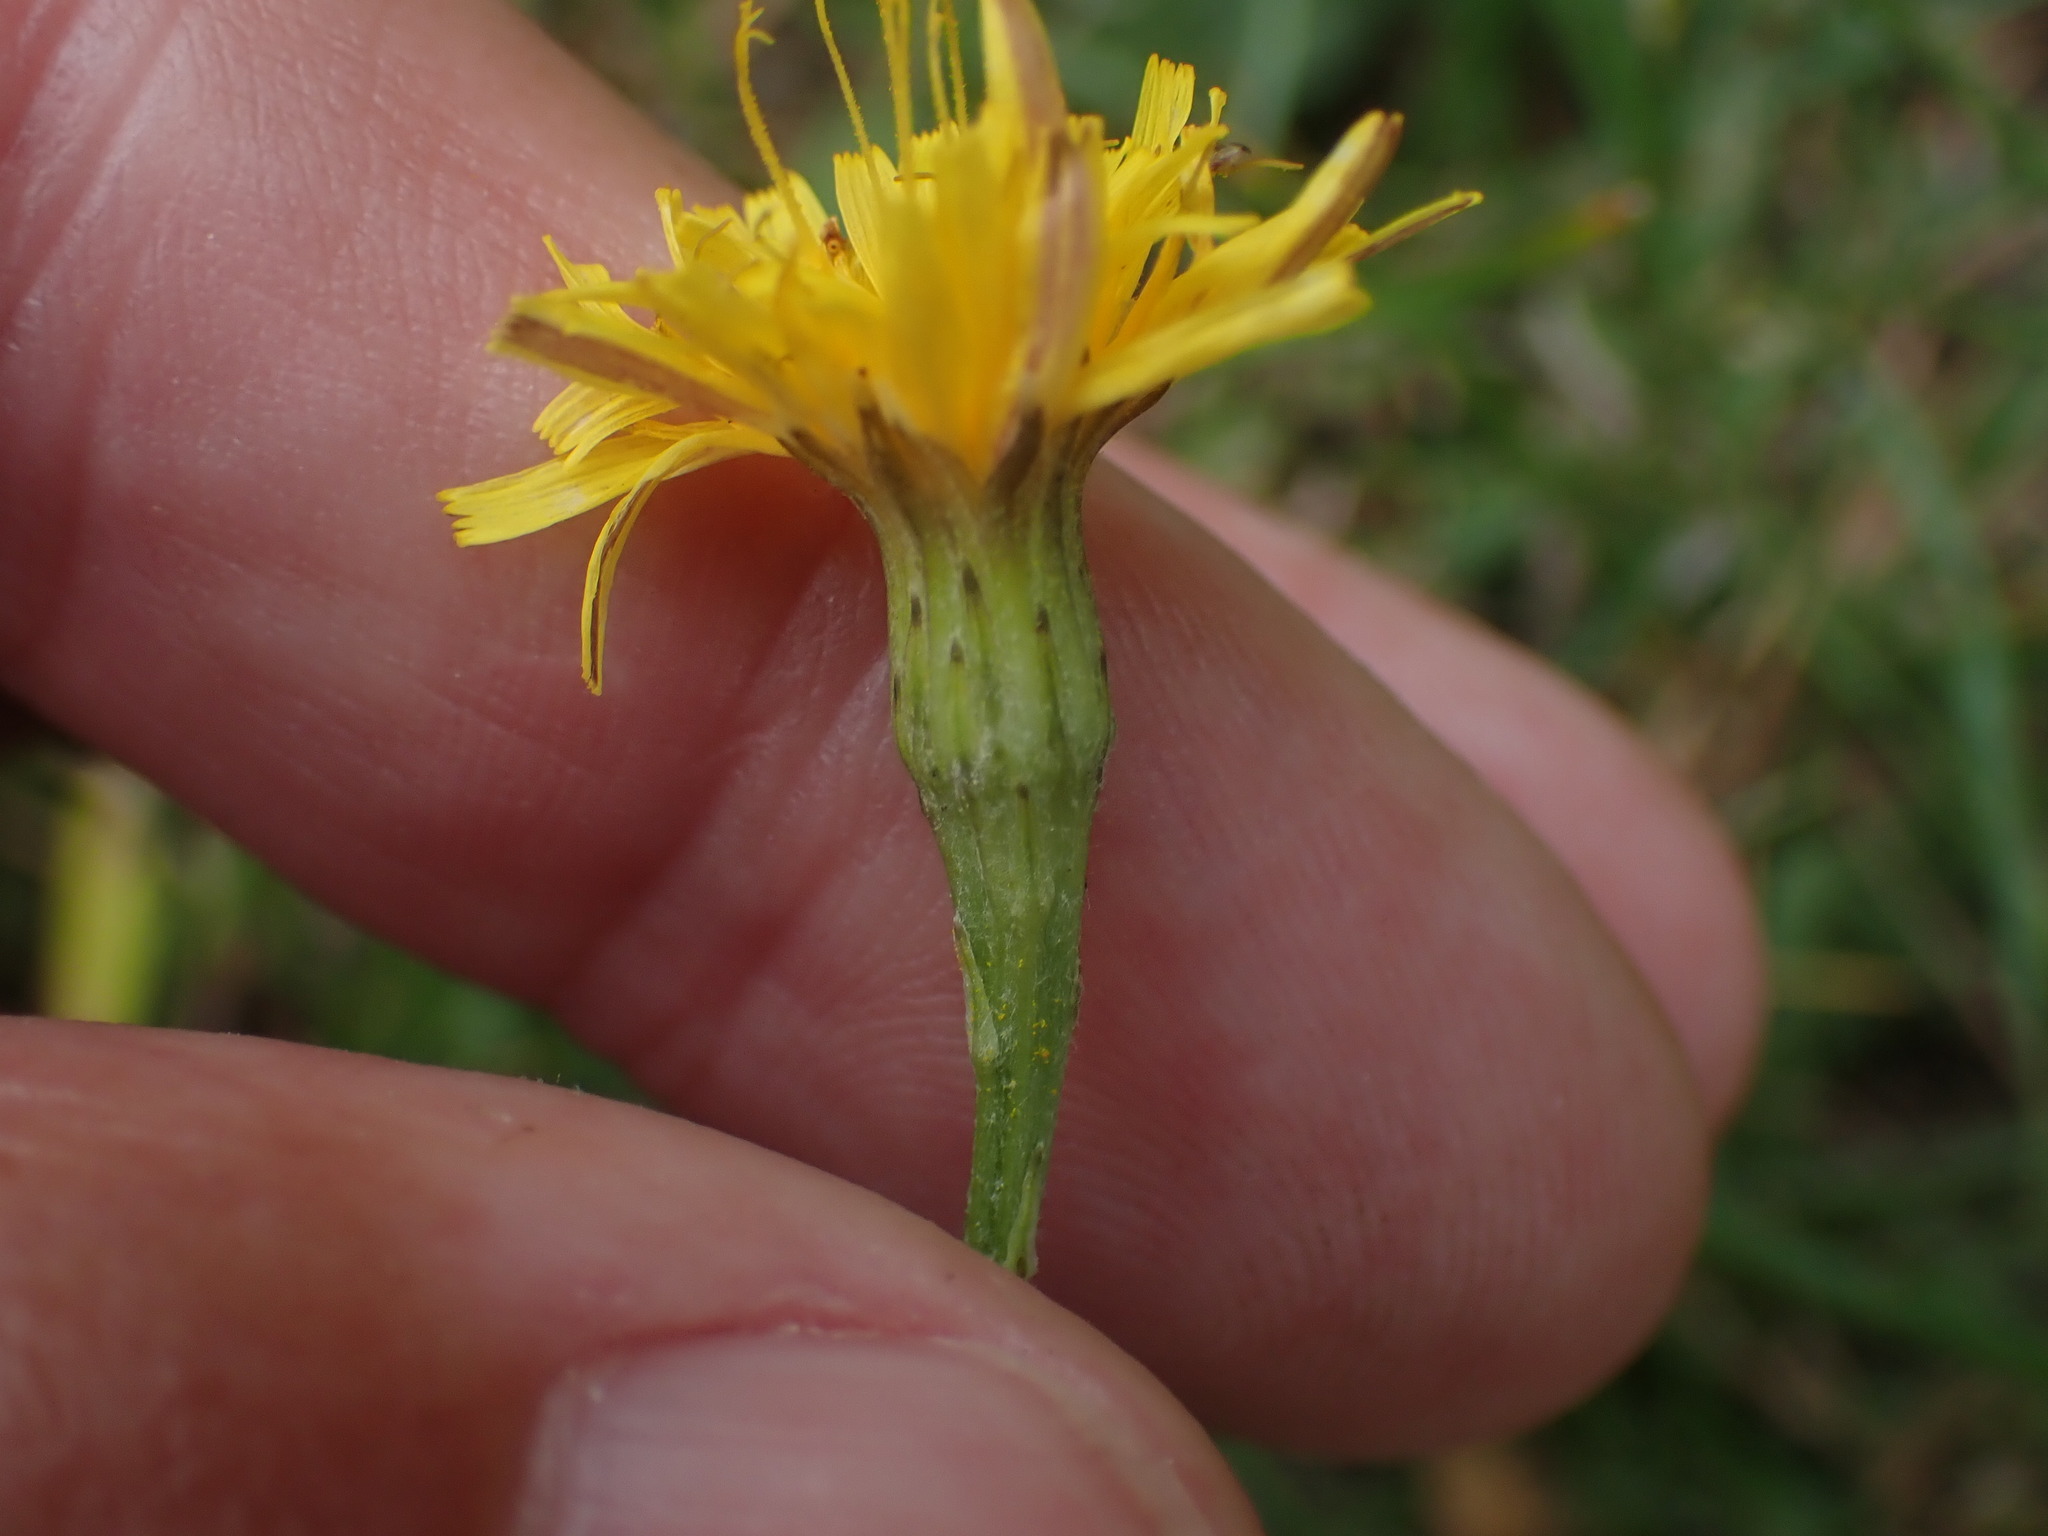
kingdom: Plantae
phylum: Tracheophyta
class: Magnoliopsida
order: Asterales
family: Asteraceae
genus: Scorzoneroides
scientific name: Scorzoneroides autumnalis
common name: Autumn hawkbit
